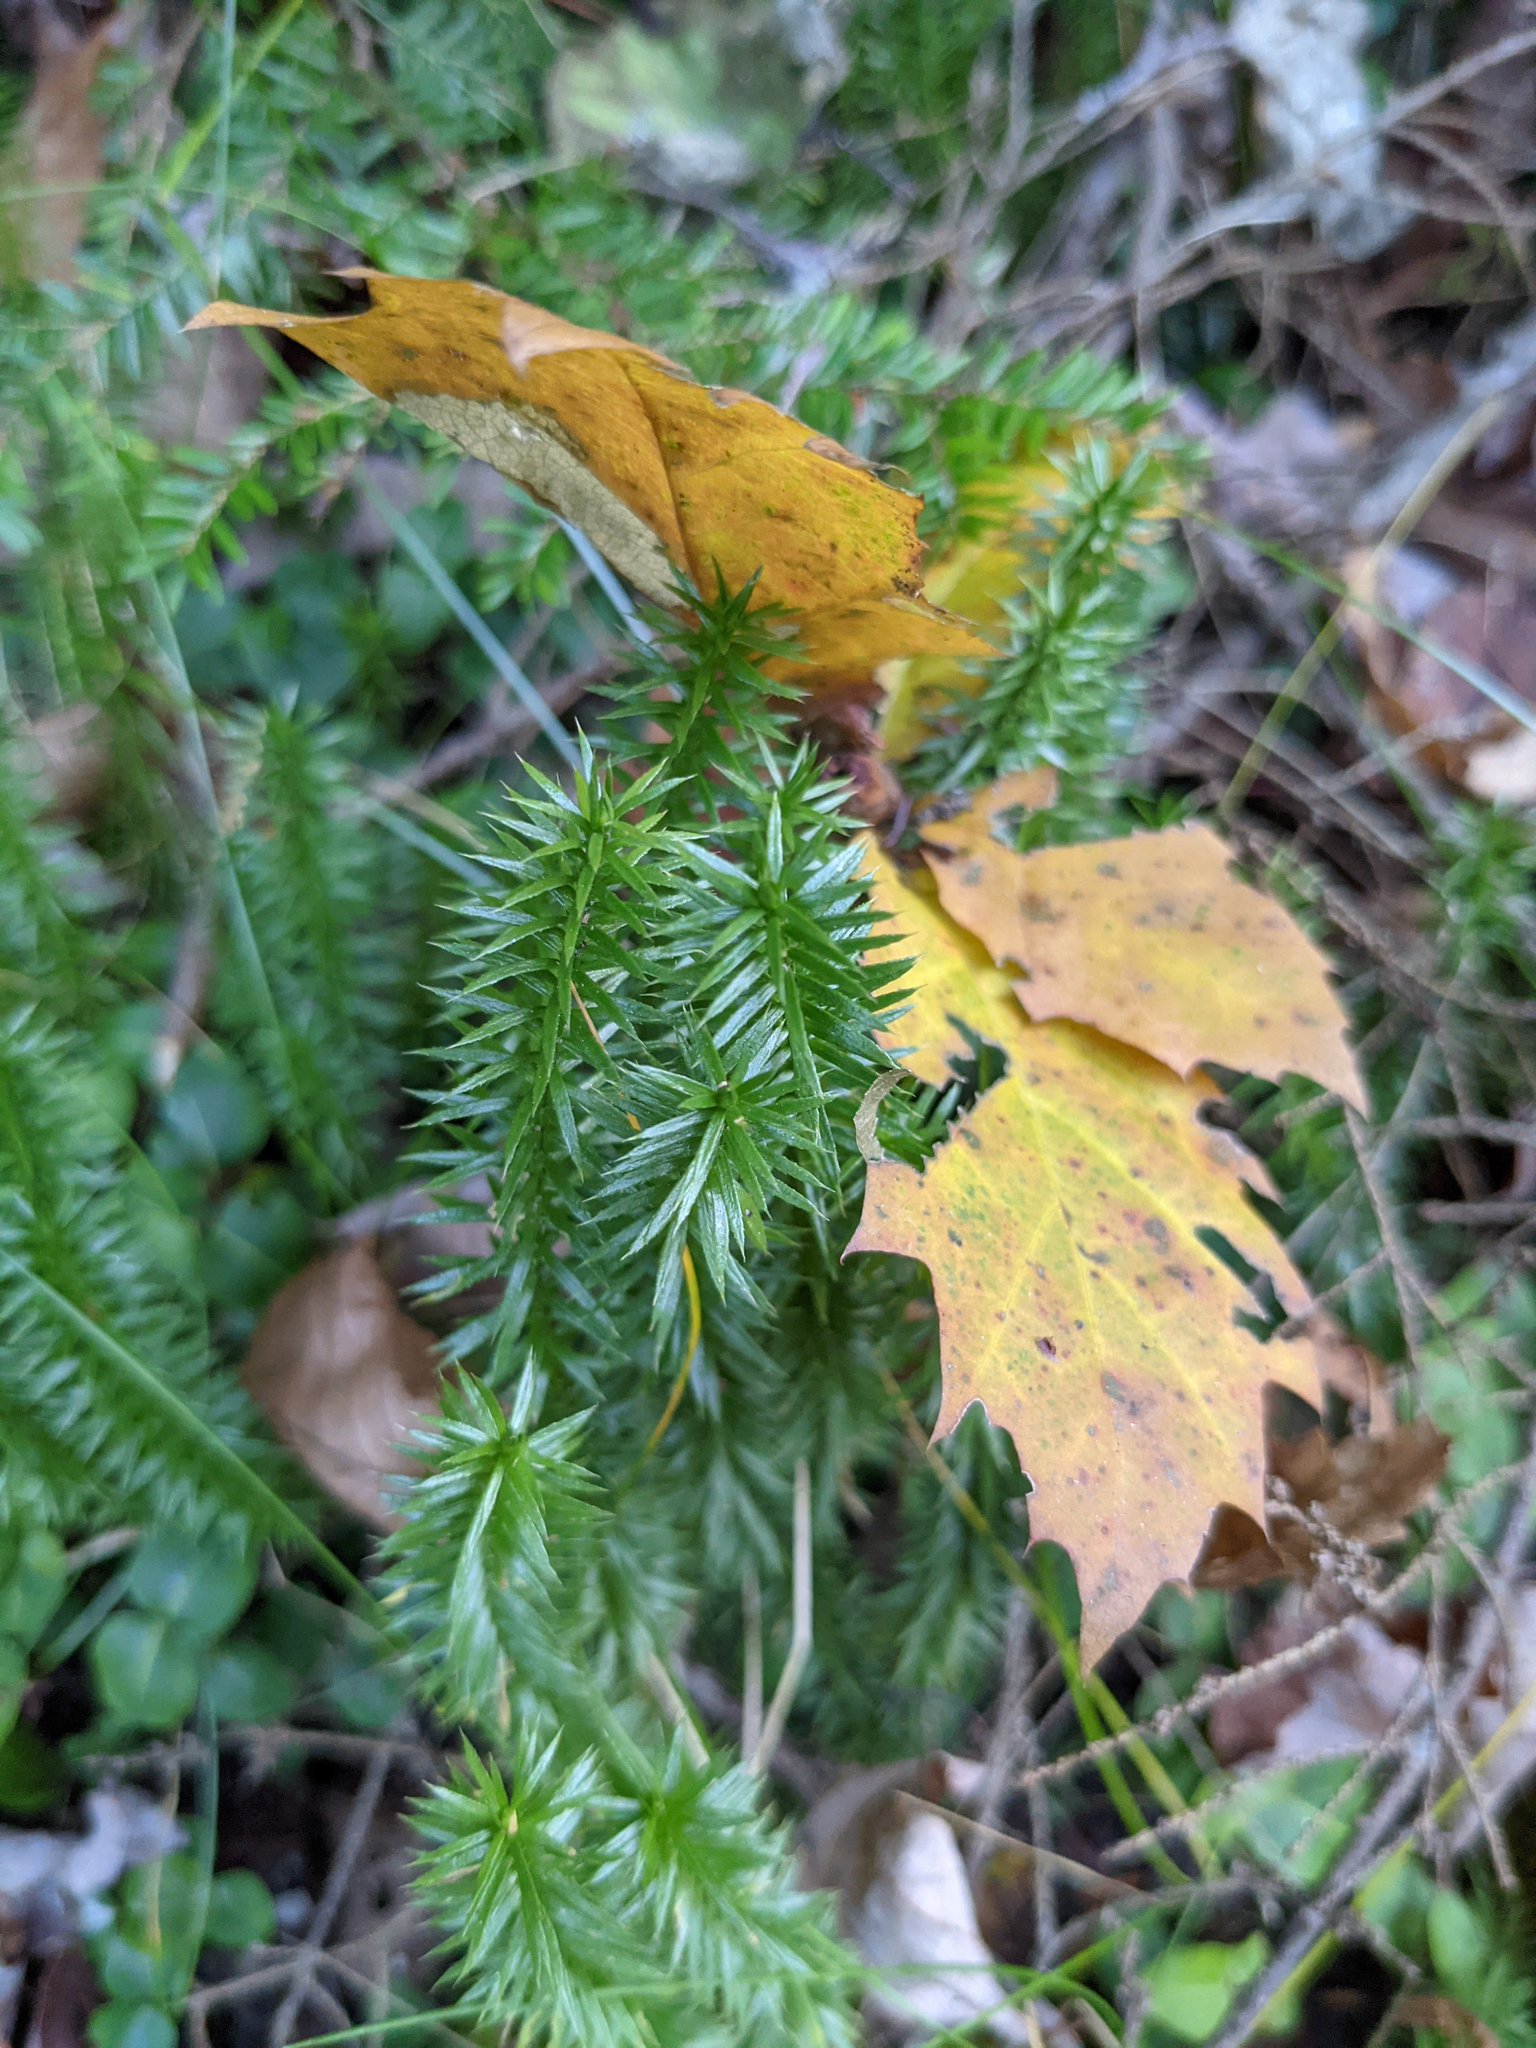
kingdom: Plantae
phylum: Tracheophyta
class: Lycopodiopsida
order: Lycopodiales
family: Lycopodiaceae
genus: Spinulum
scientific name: Spinulum annotinum
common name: Interrupted club-moss
